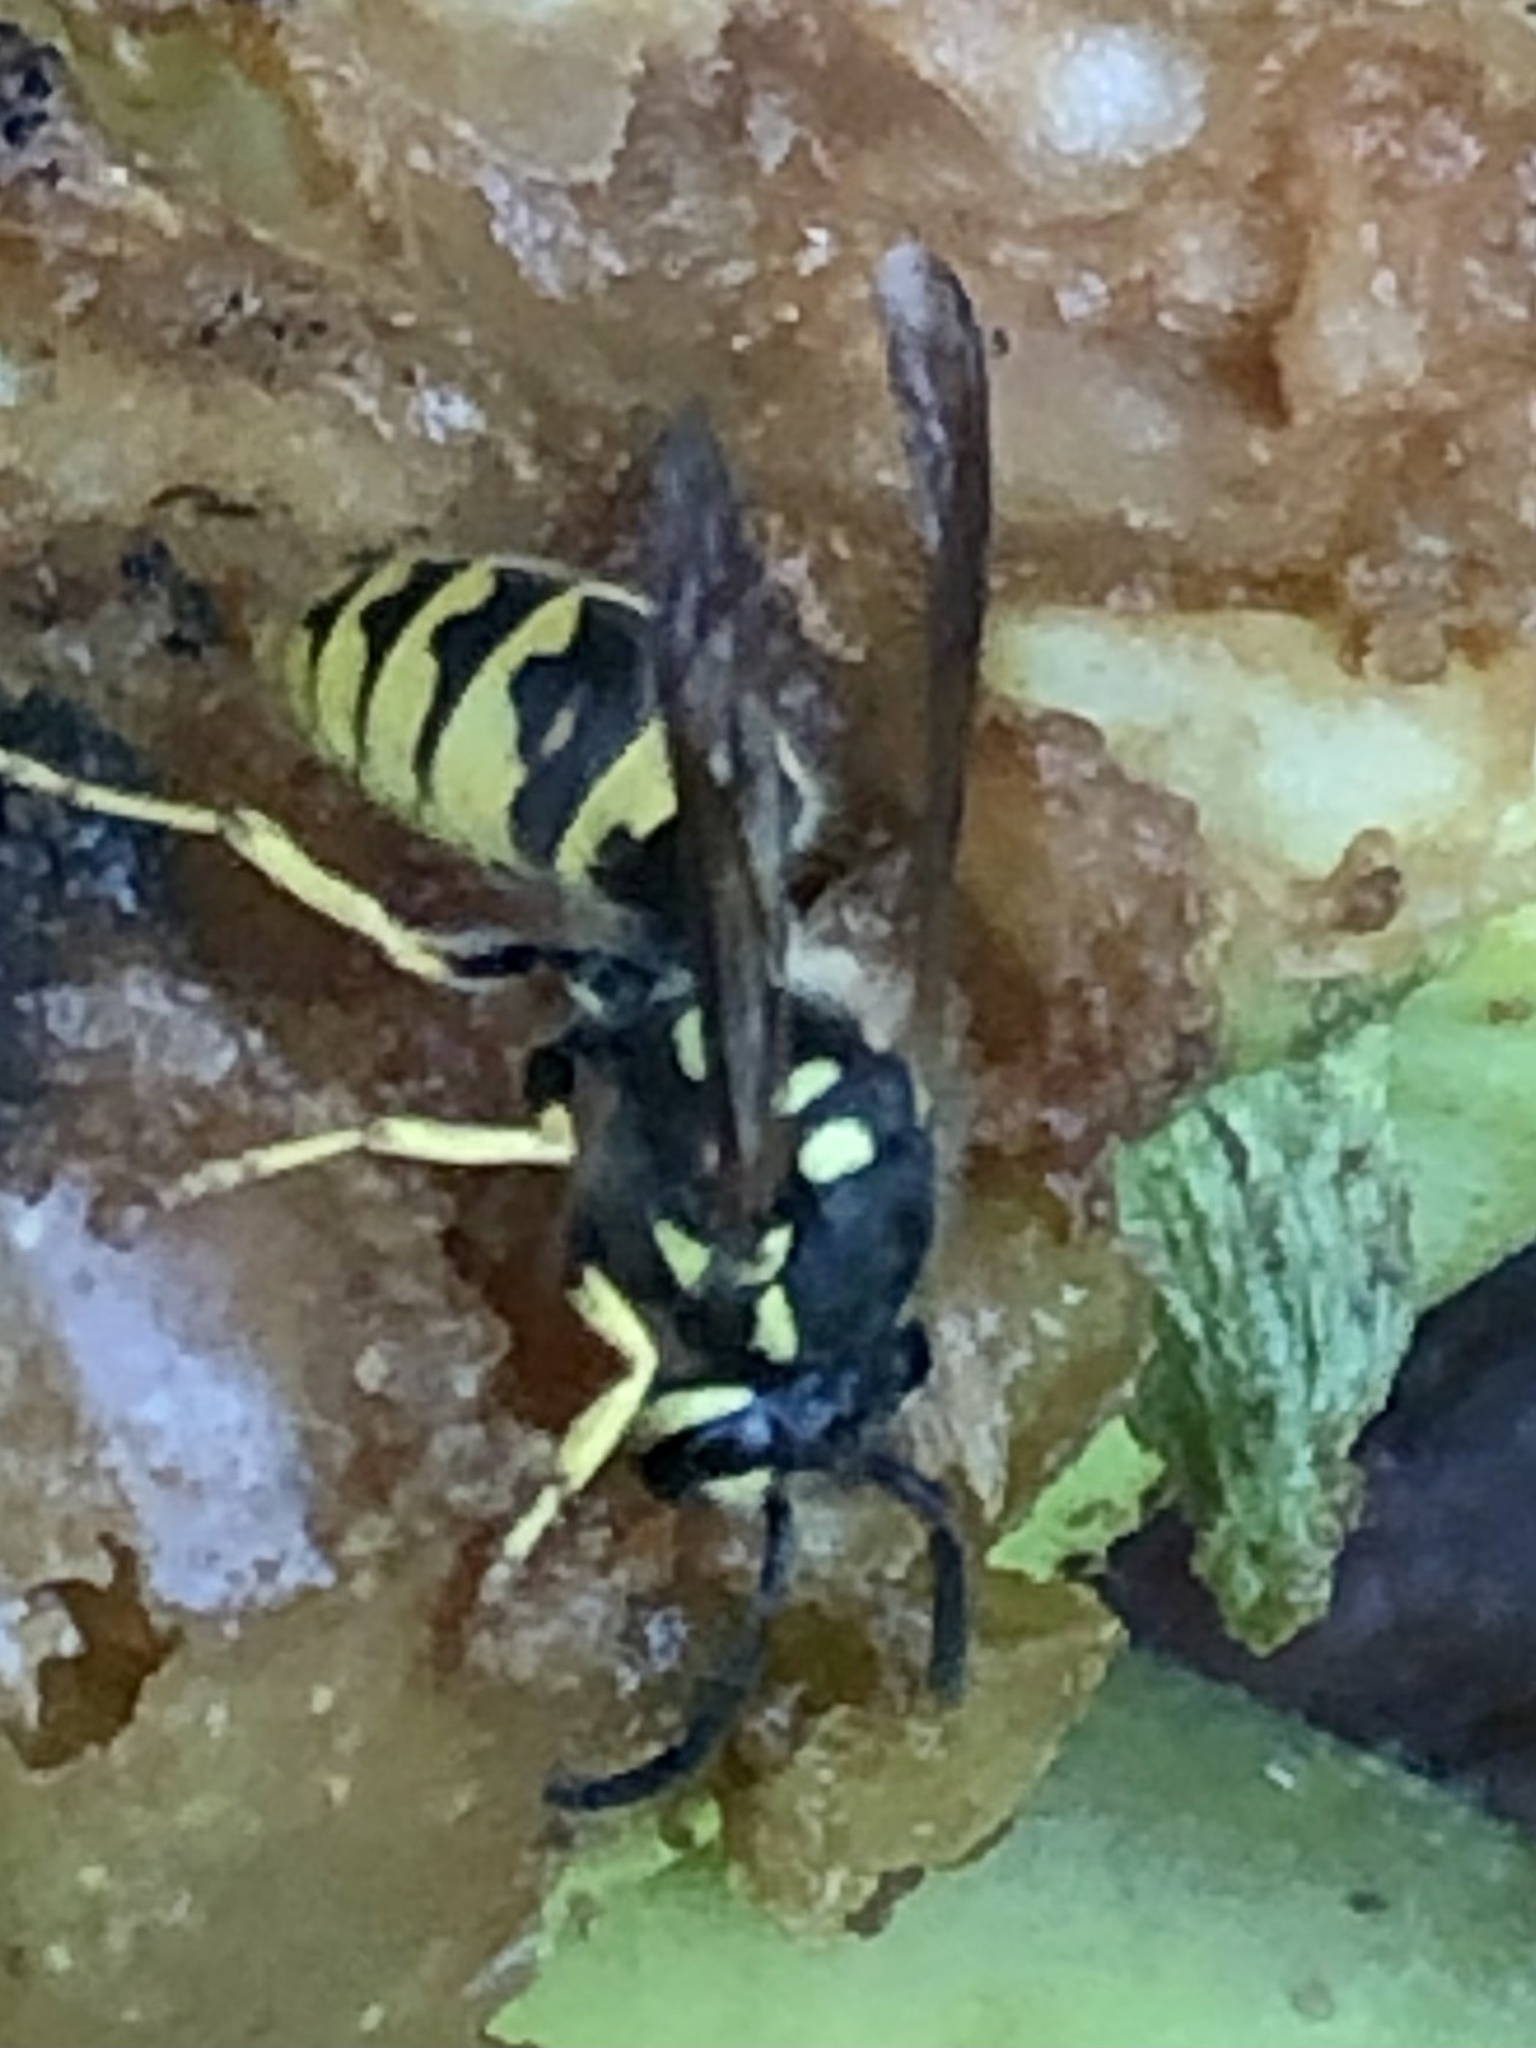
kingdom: Animalia
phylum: Arthropoda
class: Insecta
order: Hymenoptera
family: Vespidae
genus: Vespula
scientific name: Vespula germanica
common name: German wasp
